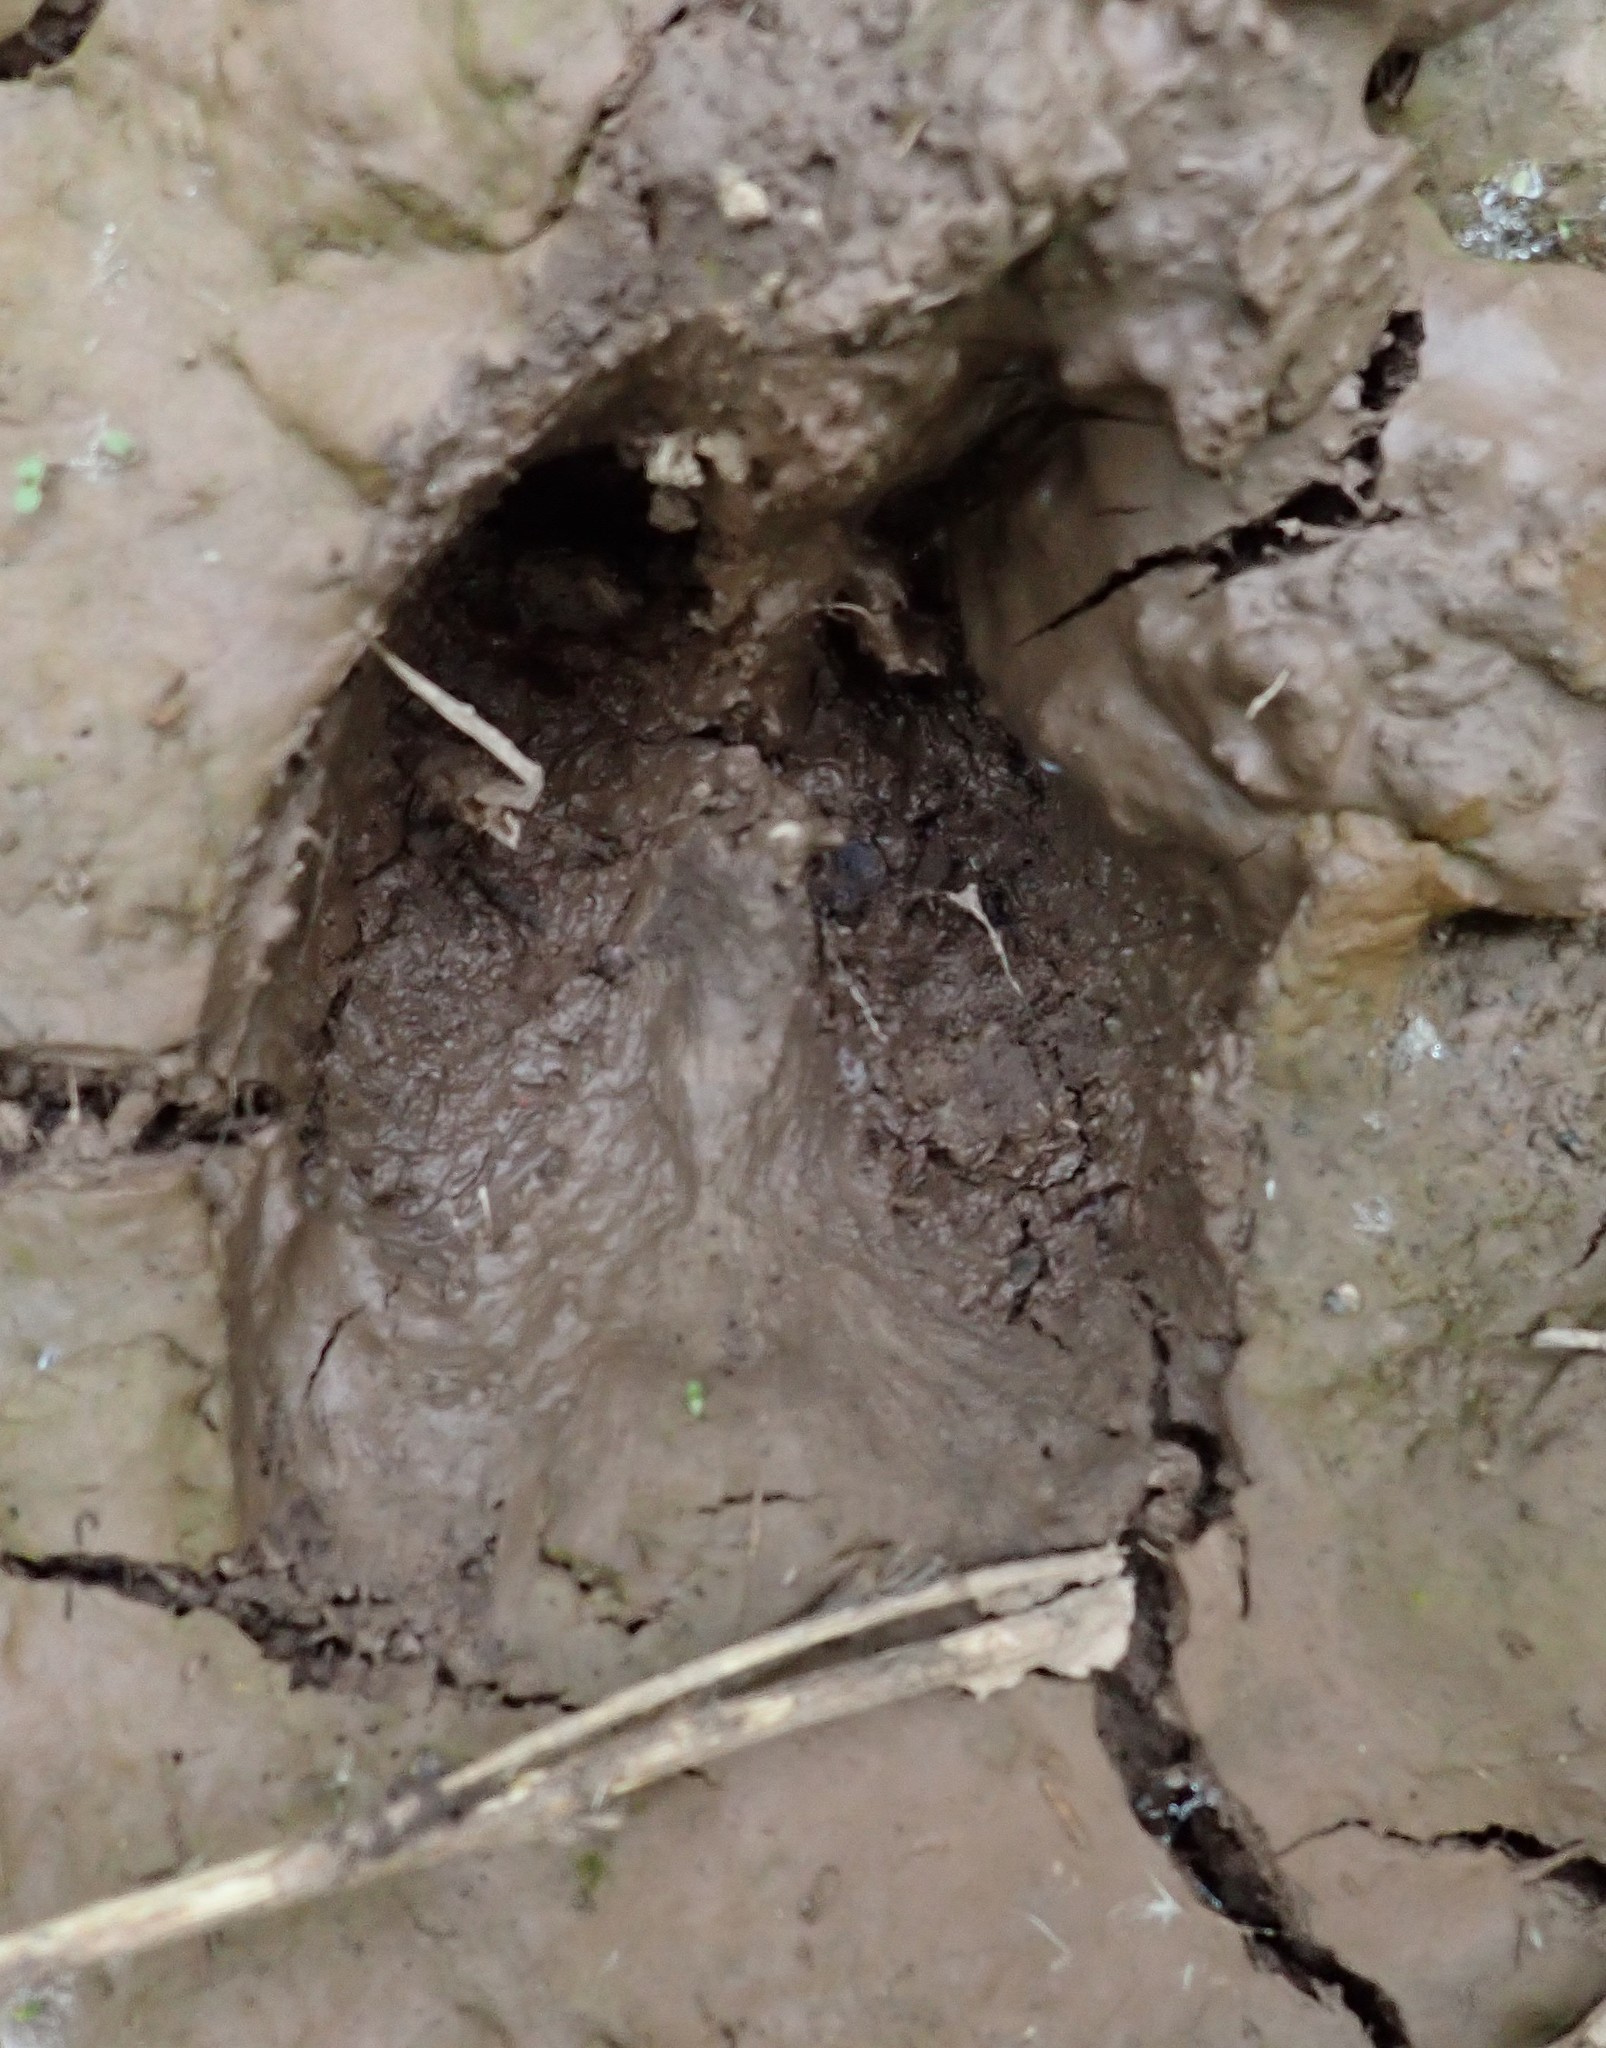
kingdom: Animalia
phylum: Chordata
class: Mammalia
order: Artiodactyla
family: Cervidae
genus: Alces
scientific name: Alces alces
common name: Moose
